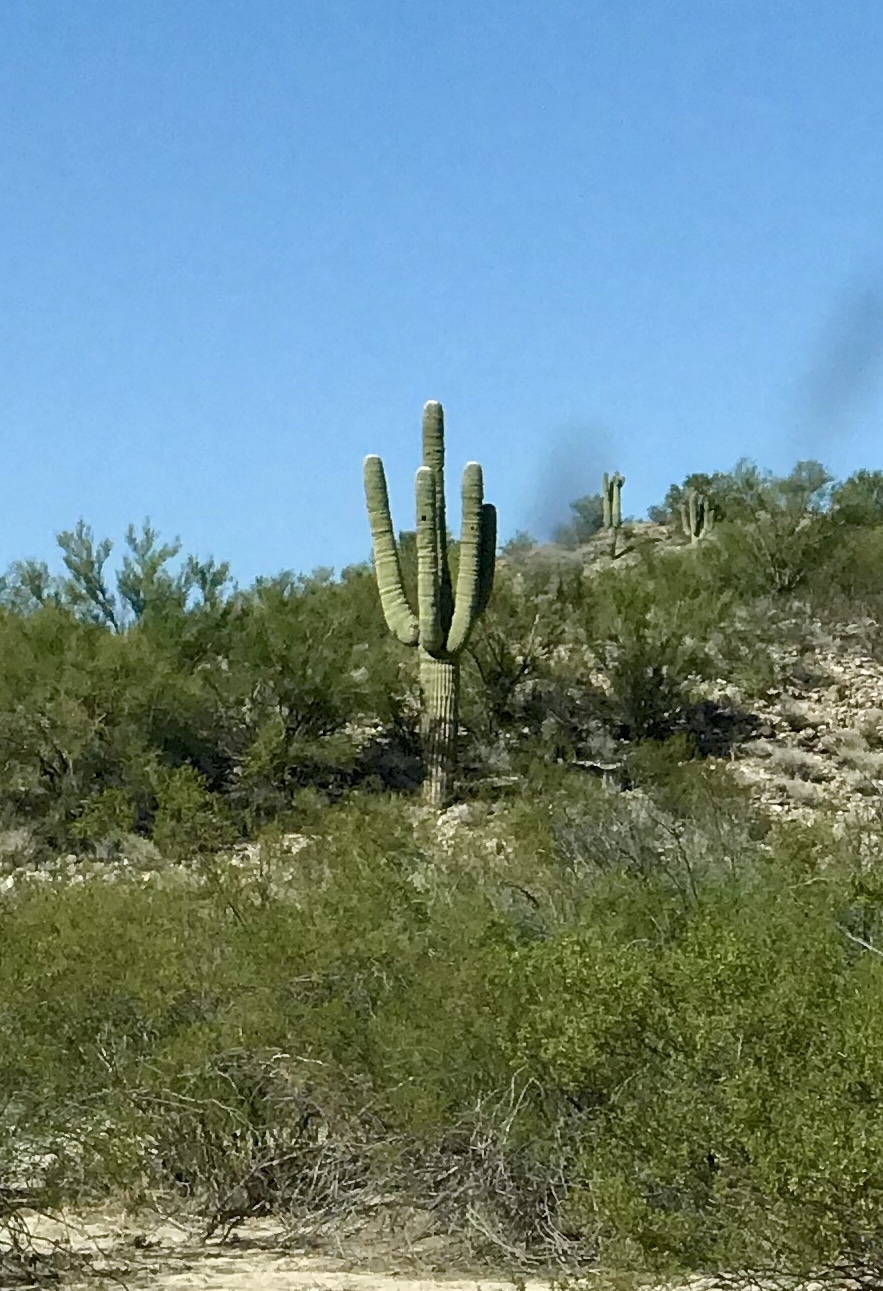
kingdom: Plantae
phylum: Tracheophyta
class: Magnoliopsida
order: Caryophyllales
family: Cactaceae
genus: Carnegiea
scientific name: Carnegiea gigantea
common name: Saguaro
